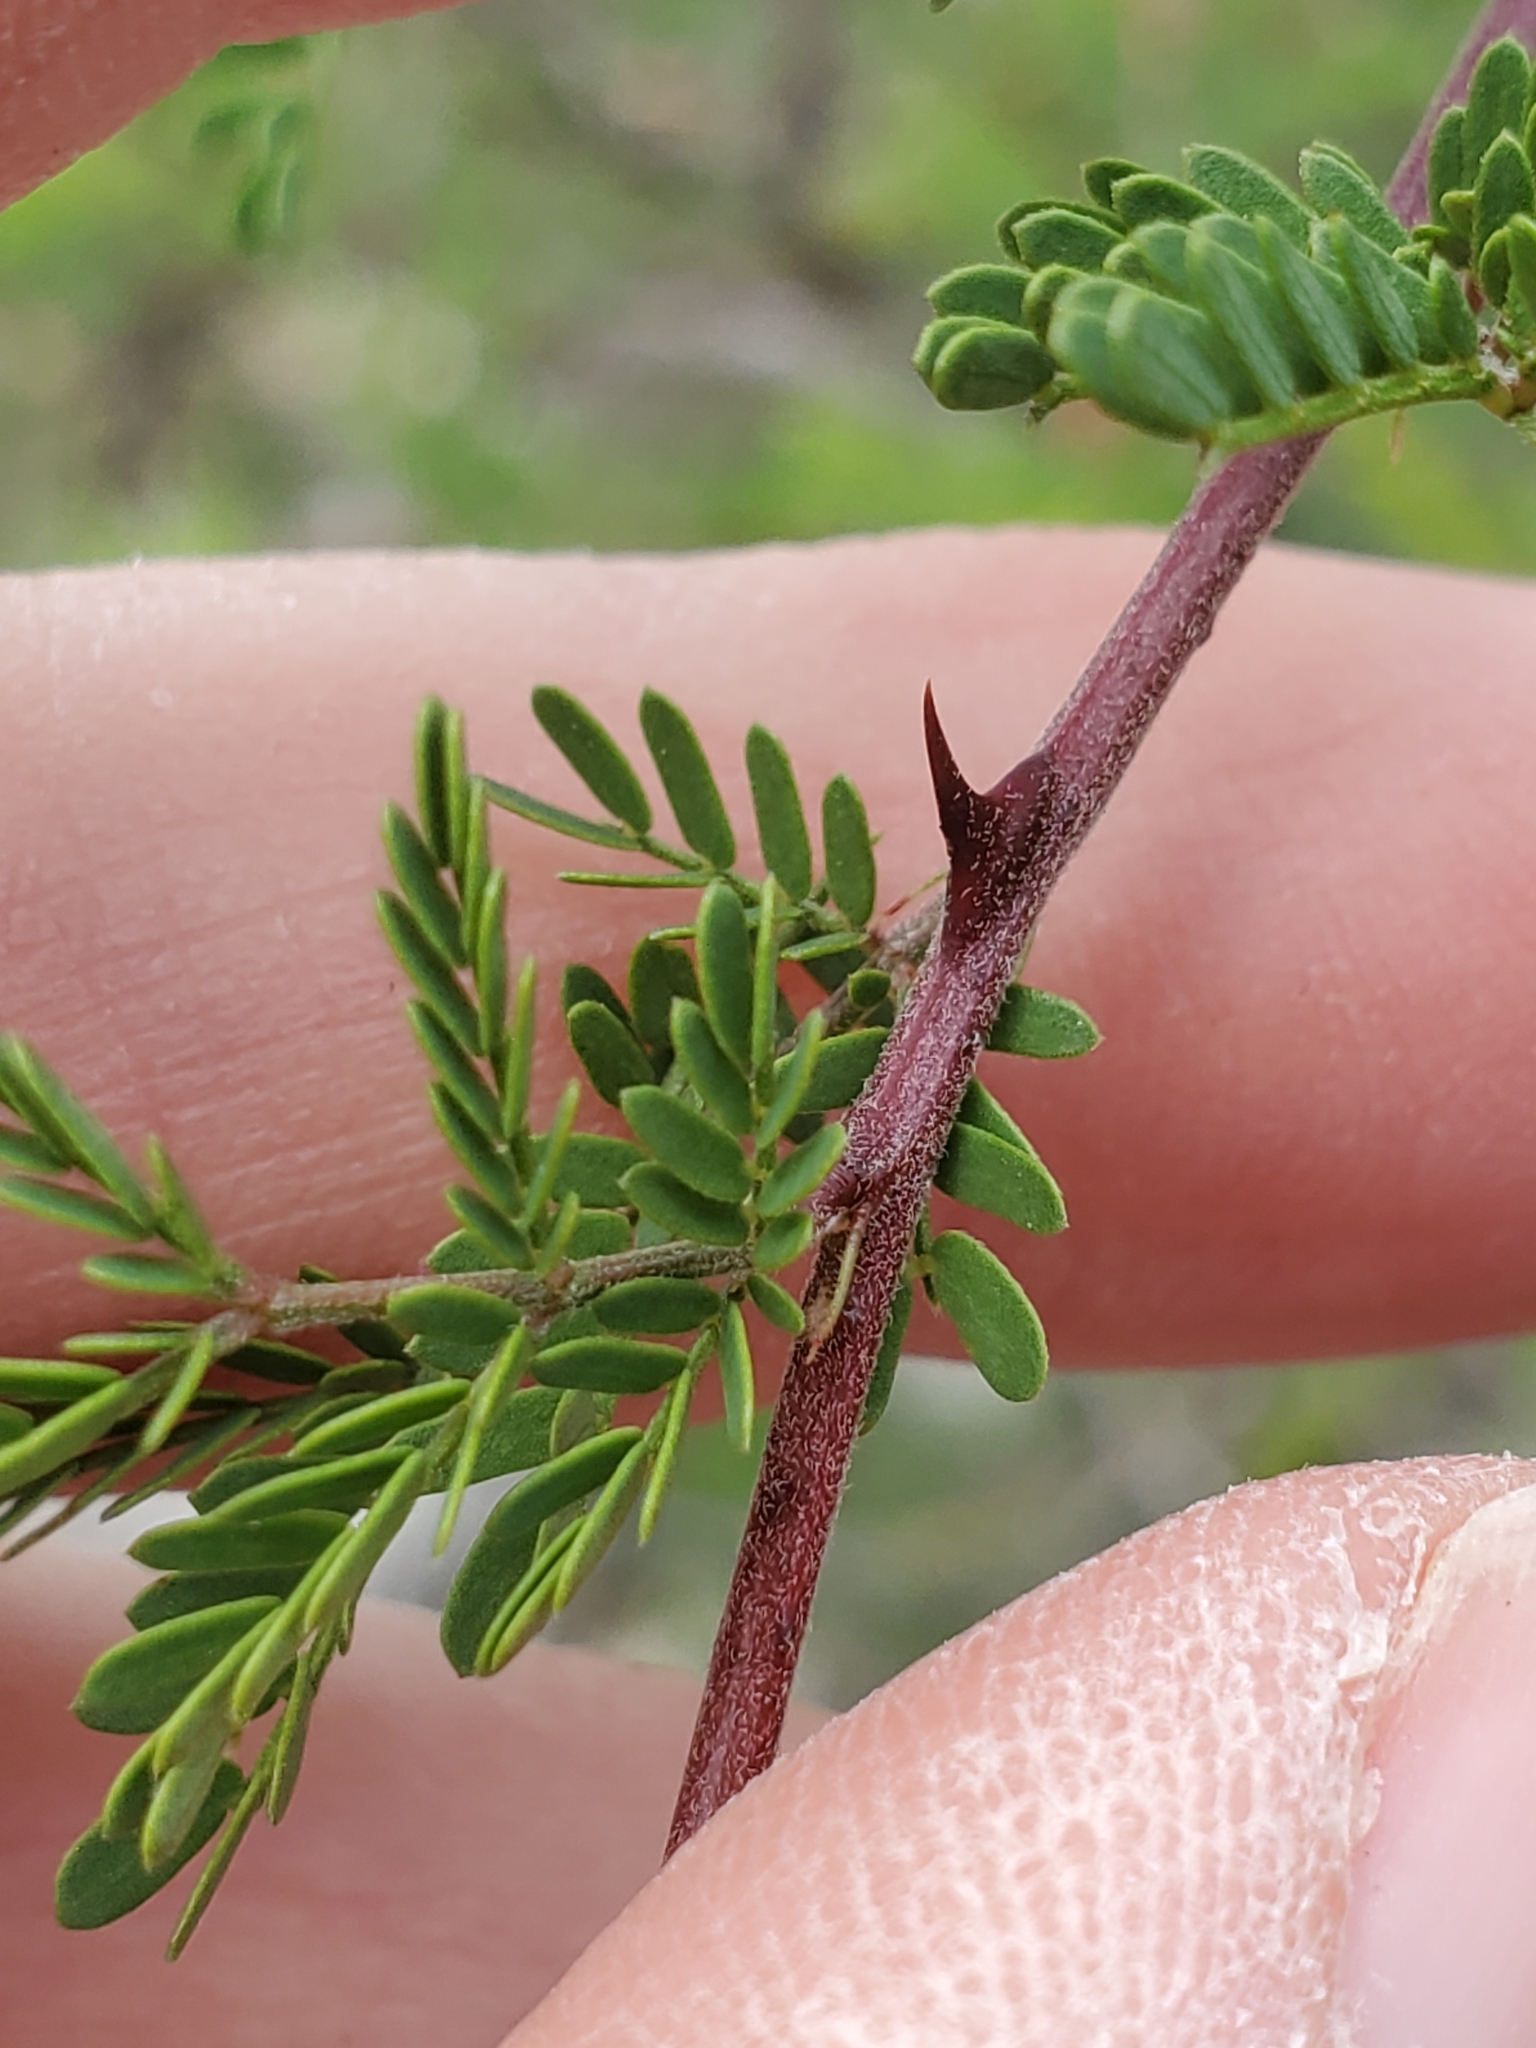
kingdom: Plantae
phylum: Tracheophyta
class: Magnoliopsida
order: Fabales
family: Fabaceae
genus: Mimosa
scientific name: Mimosa texana
